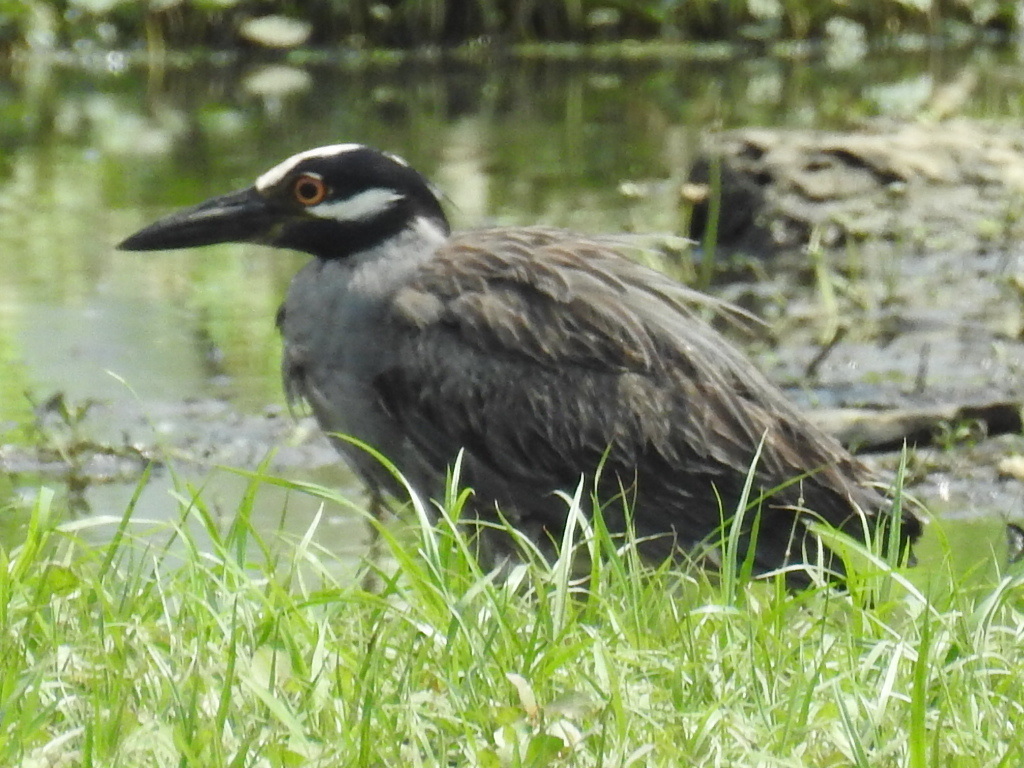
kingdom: Animalia
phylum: Chordata
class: Aves
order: Pelecaniformes
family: Ardeidae
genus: Nyctanassa
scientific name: Nyctanassa violacea
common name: Yellow-crowned night heron
